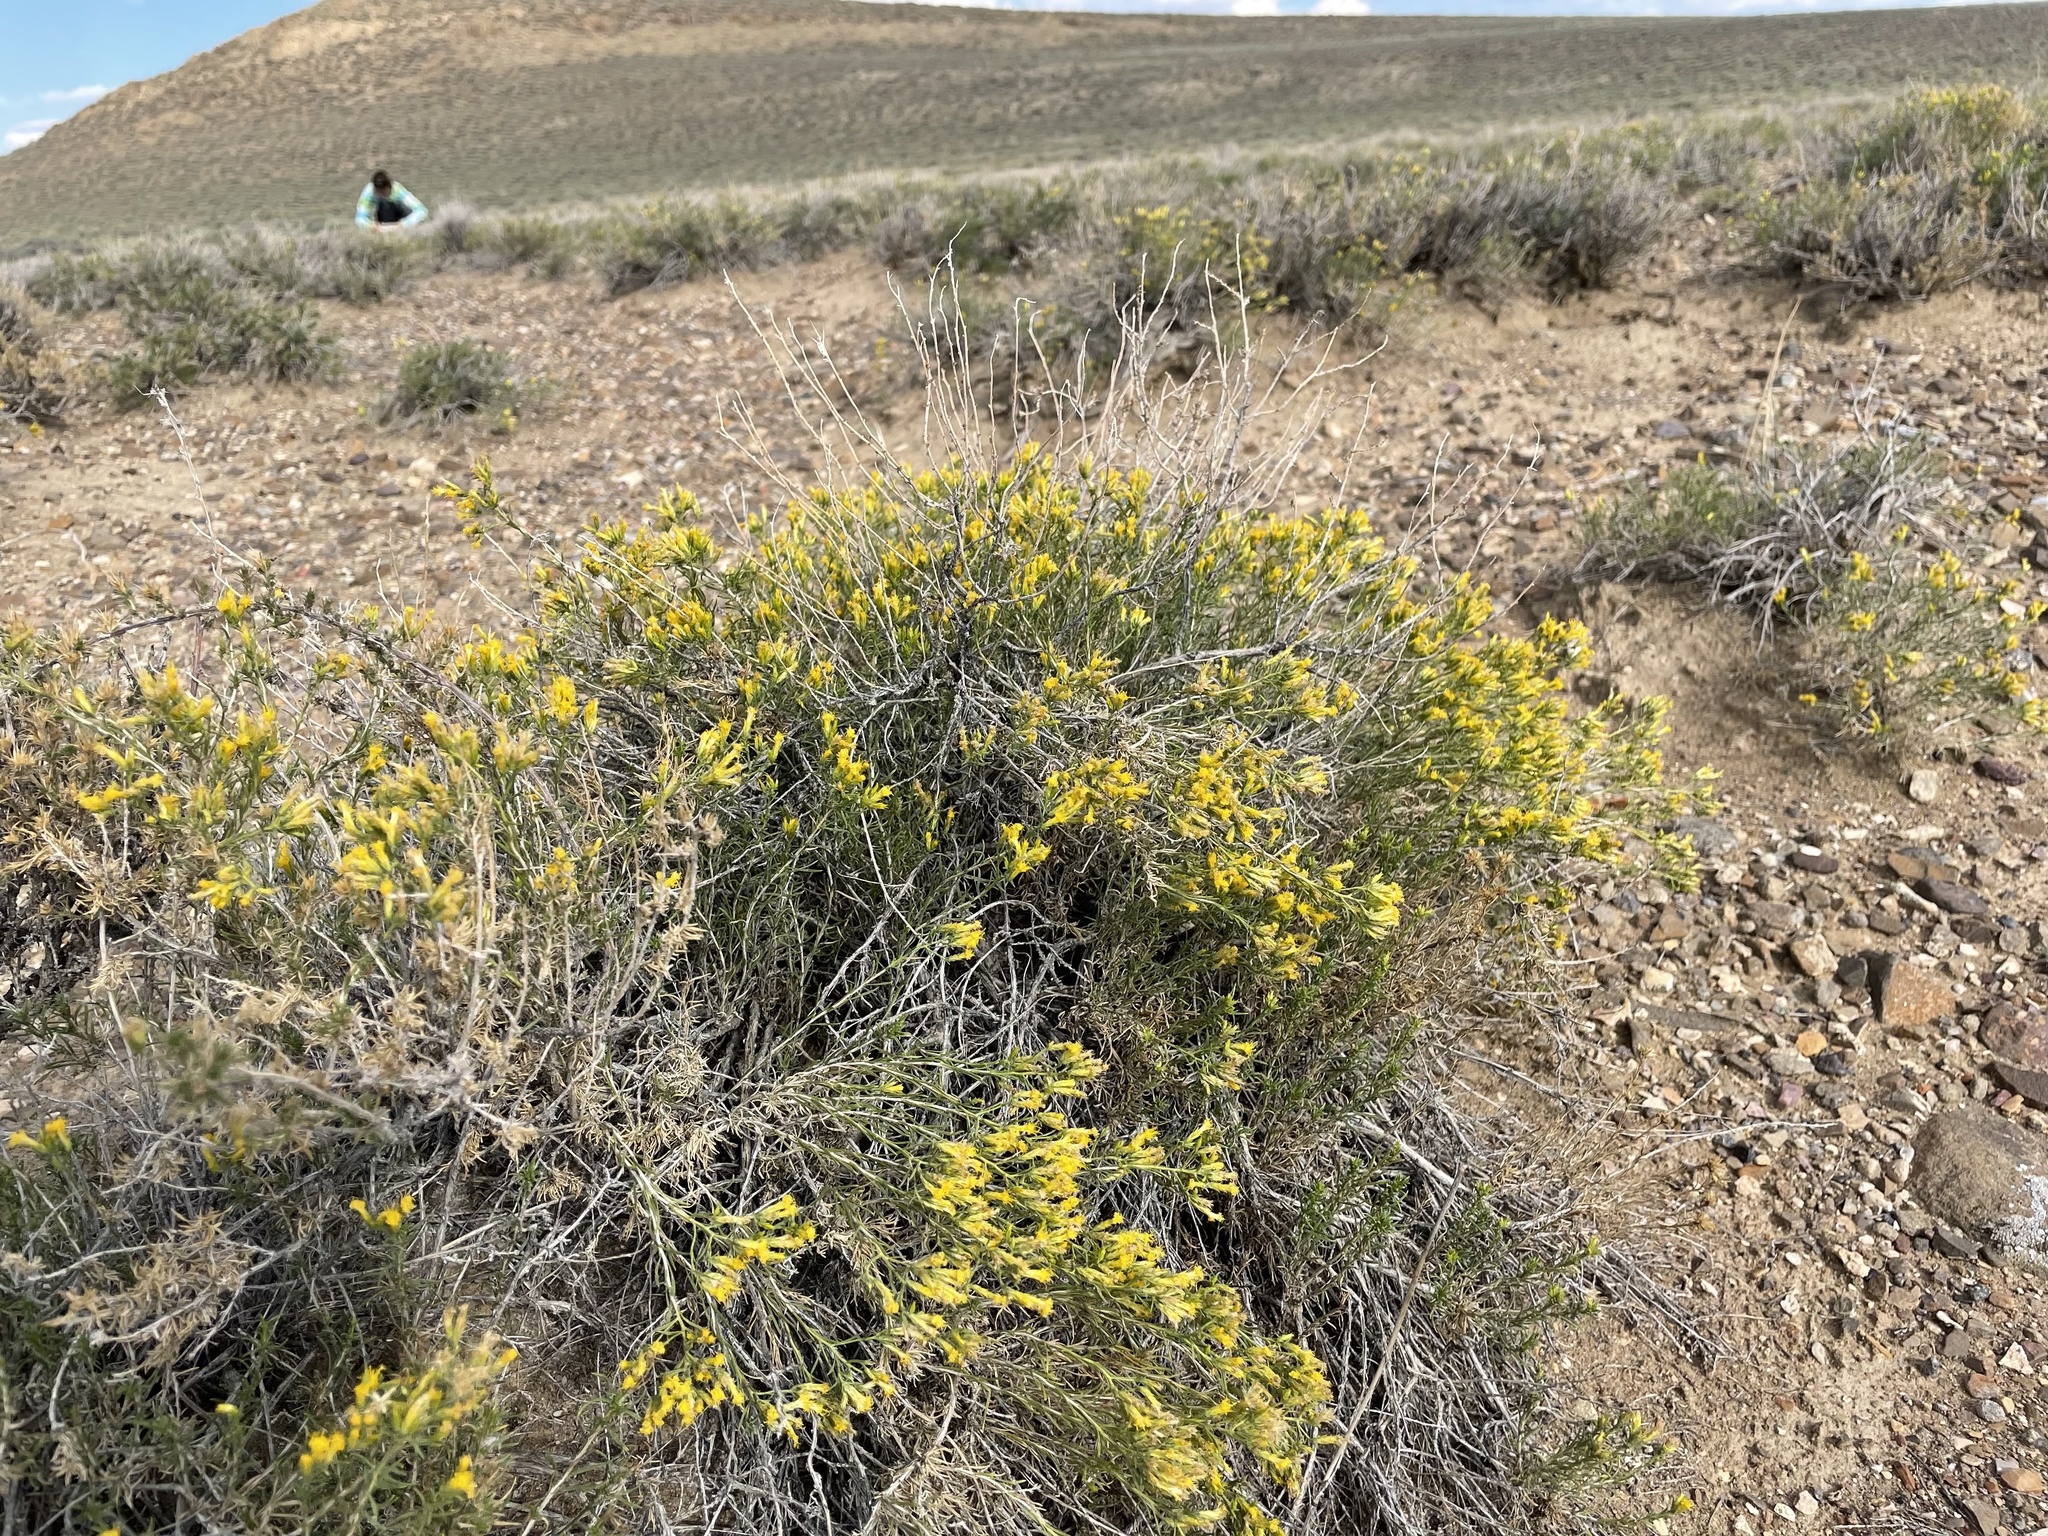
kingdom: Plantae
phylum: Tracheophyta
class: Magnoliopsida
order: Asterales
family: Asteraceae
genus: Chrysothamnus
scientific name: Chrysothamnus greenei
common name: Greene's rabbitbrush
